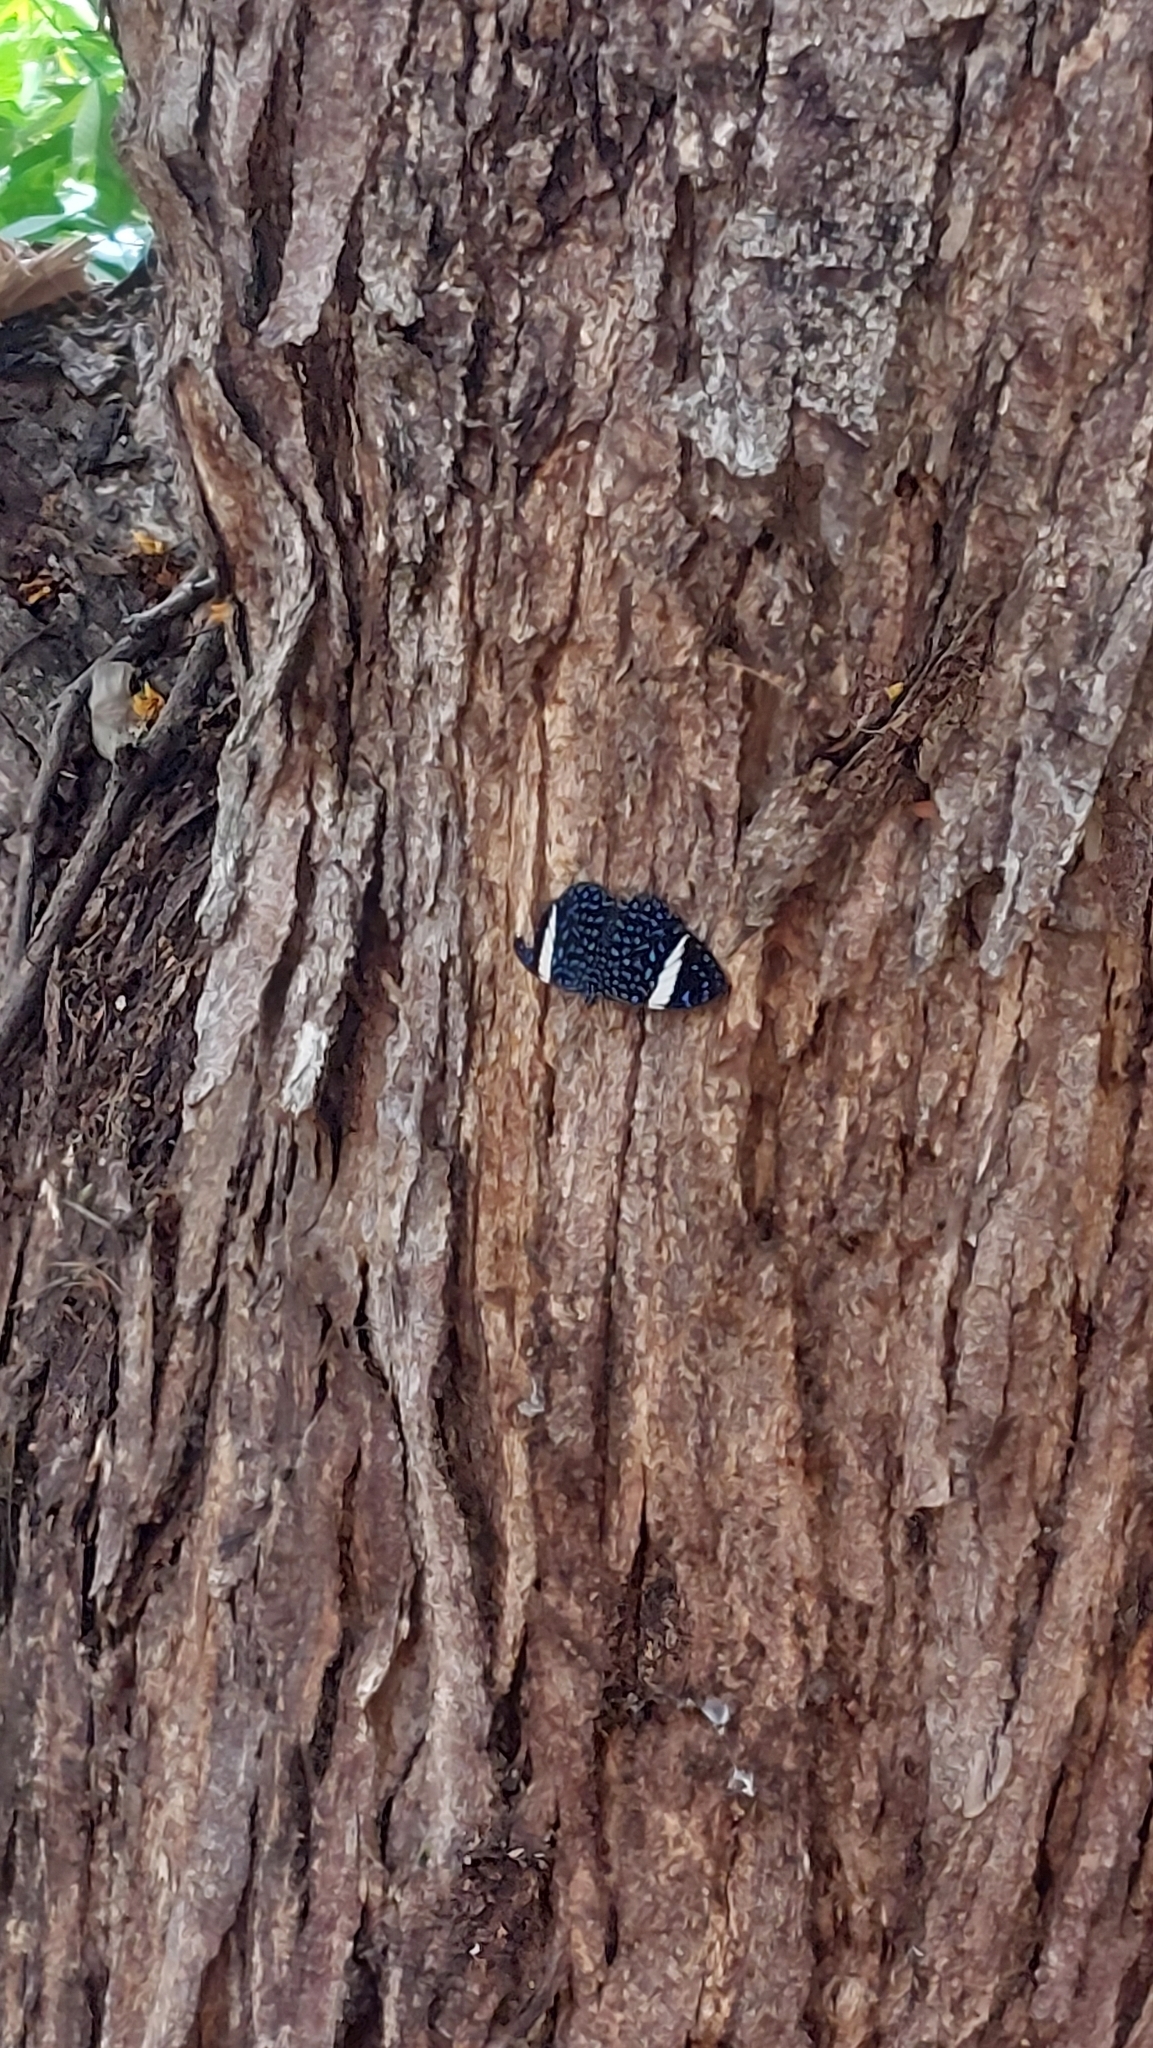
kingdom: Animalia
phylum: Arthropoda
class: Insecta
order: Lepidoptera
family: Nymphalidae
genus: Hamadryas
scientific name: Hamadryas laodamia
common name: Starry night cracker
